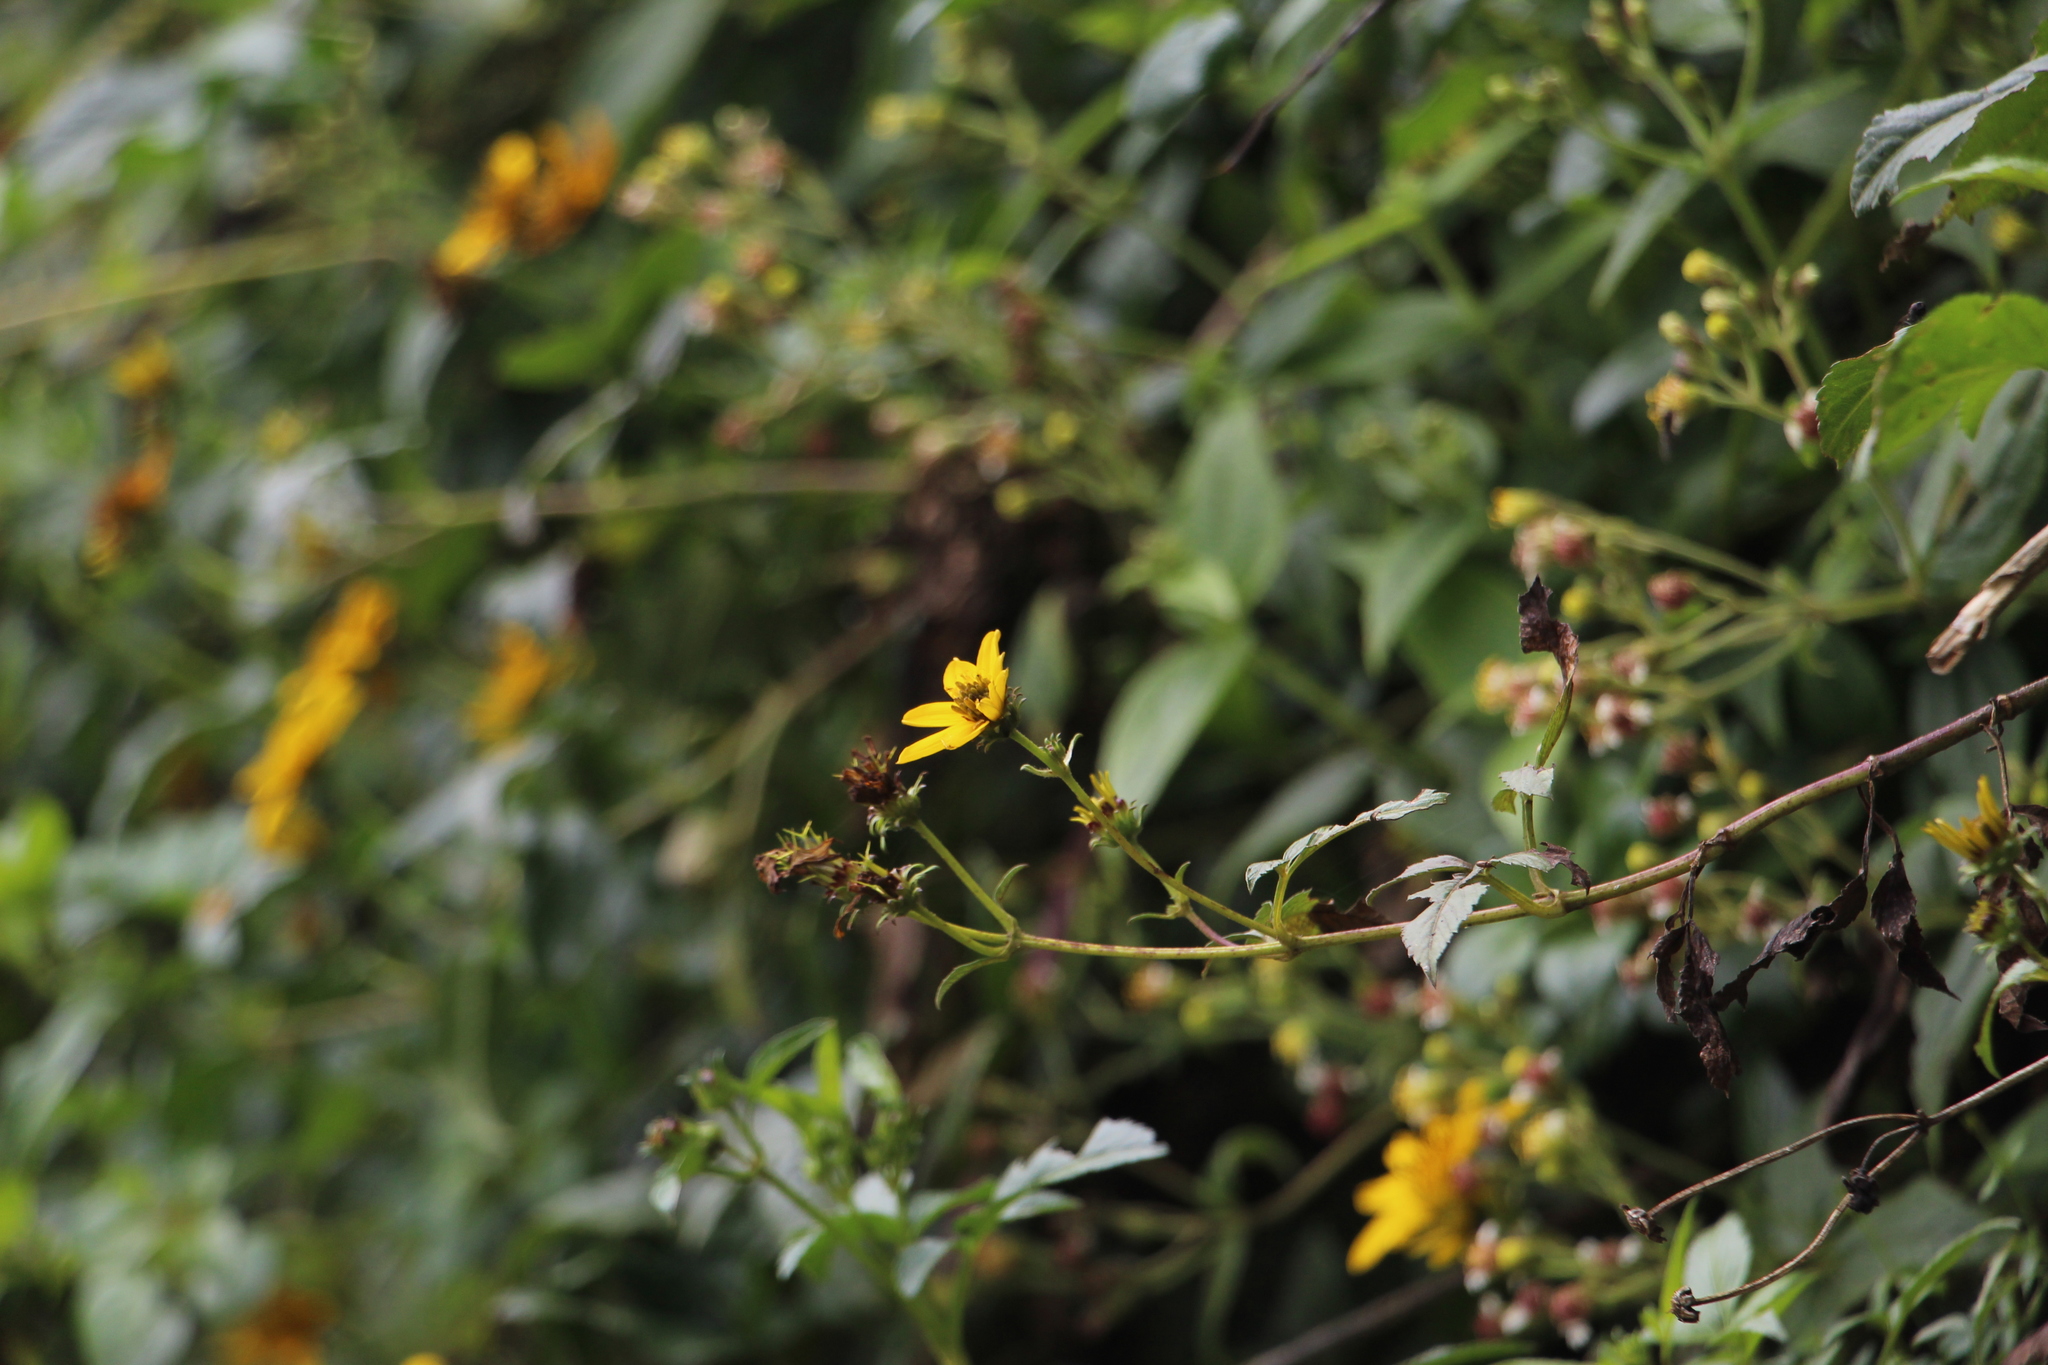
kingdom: Plantae
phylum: Tracheophyta
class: Magnoliopsida
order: Asterales
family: Asteraceae
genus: Bidens
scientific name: Bidens rubifolia
